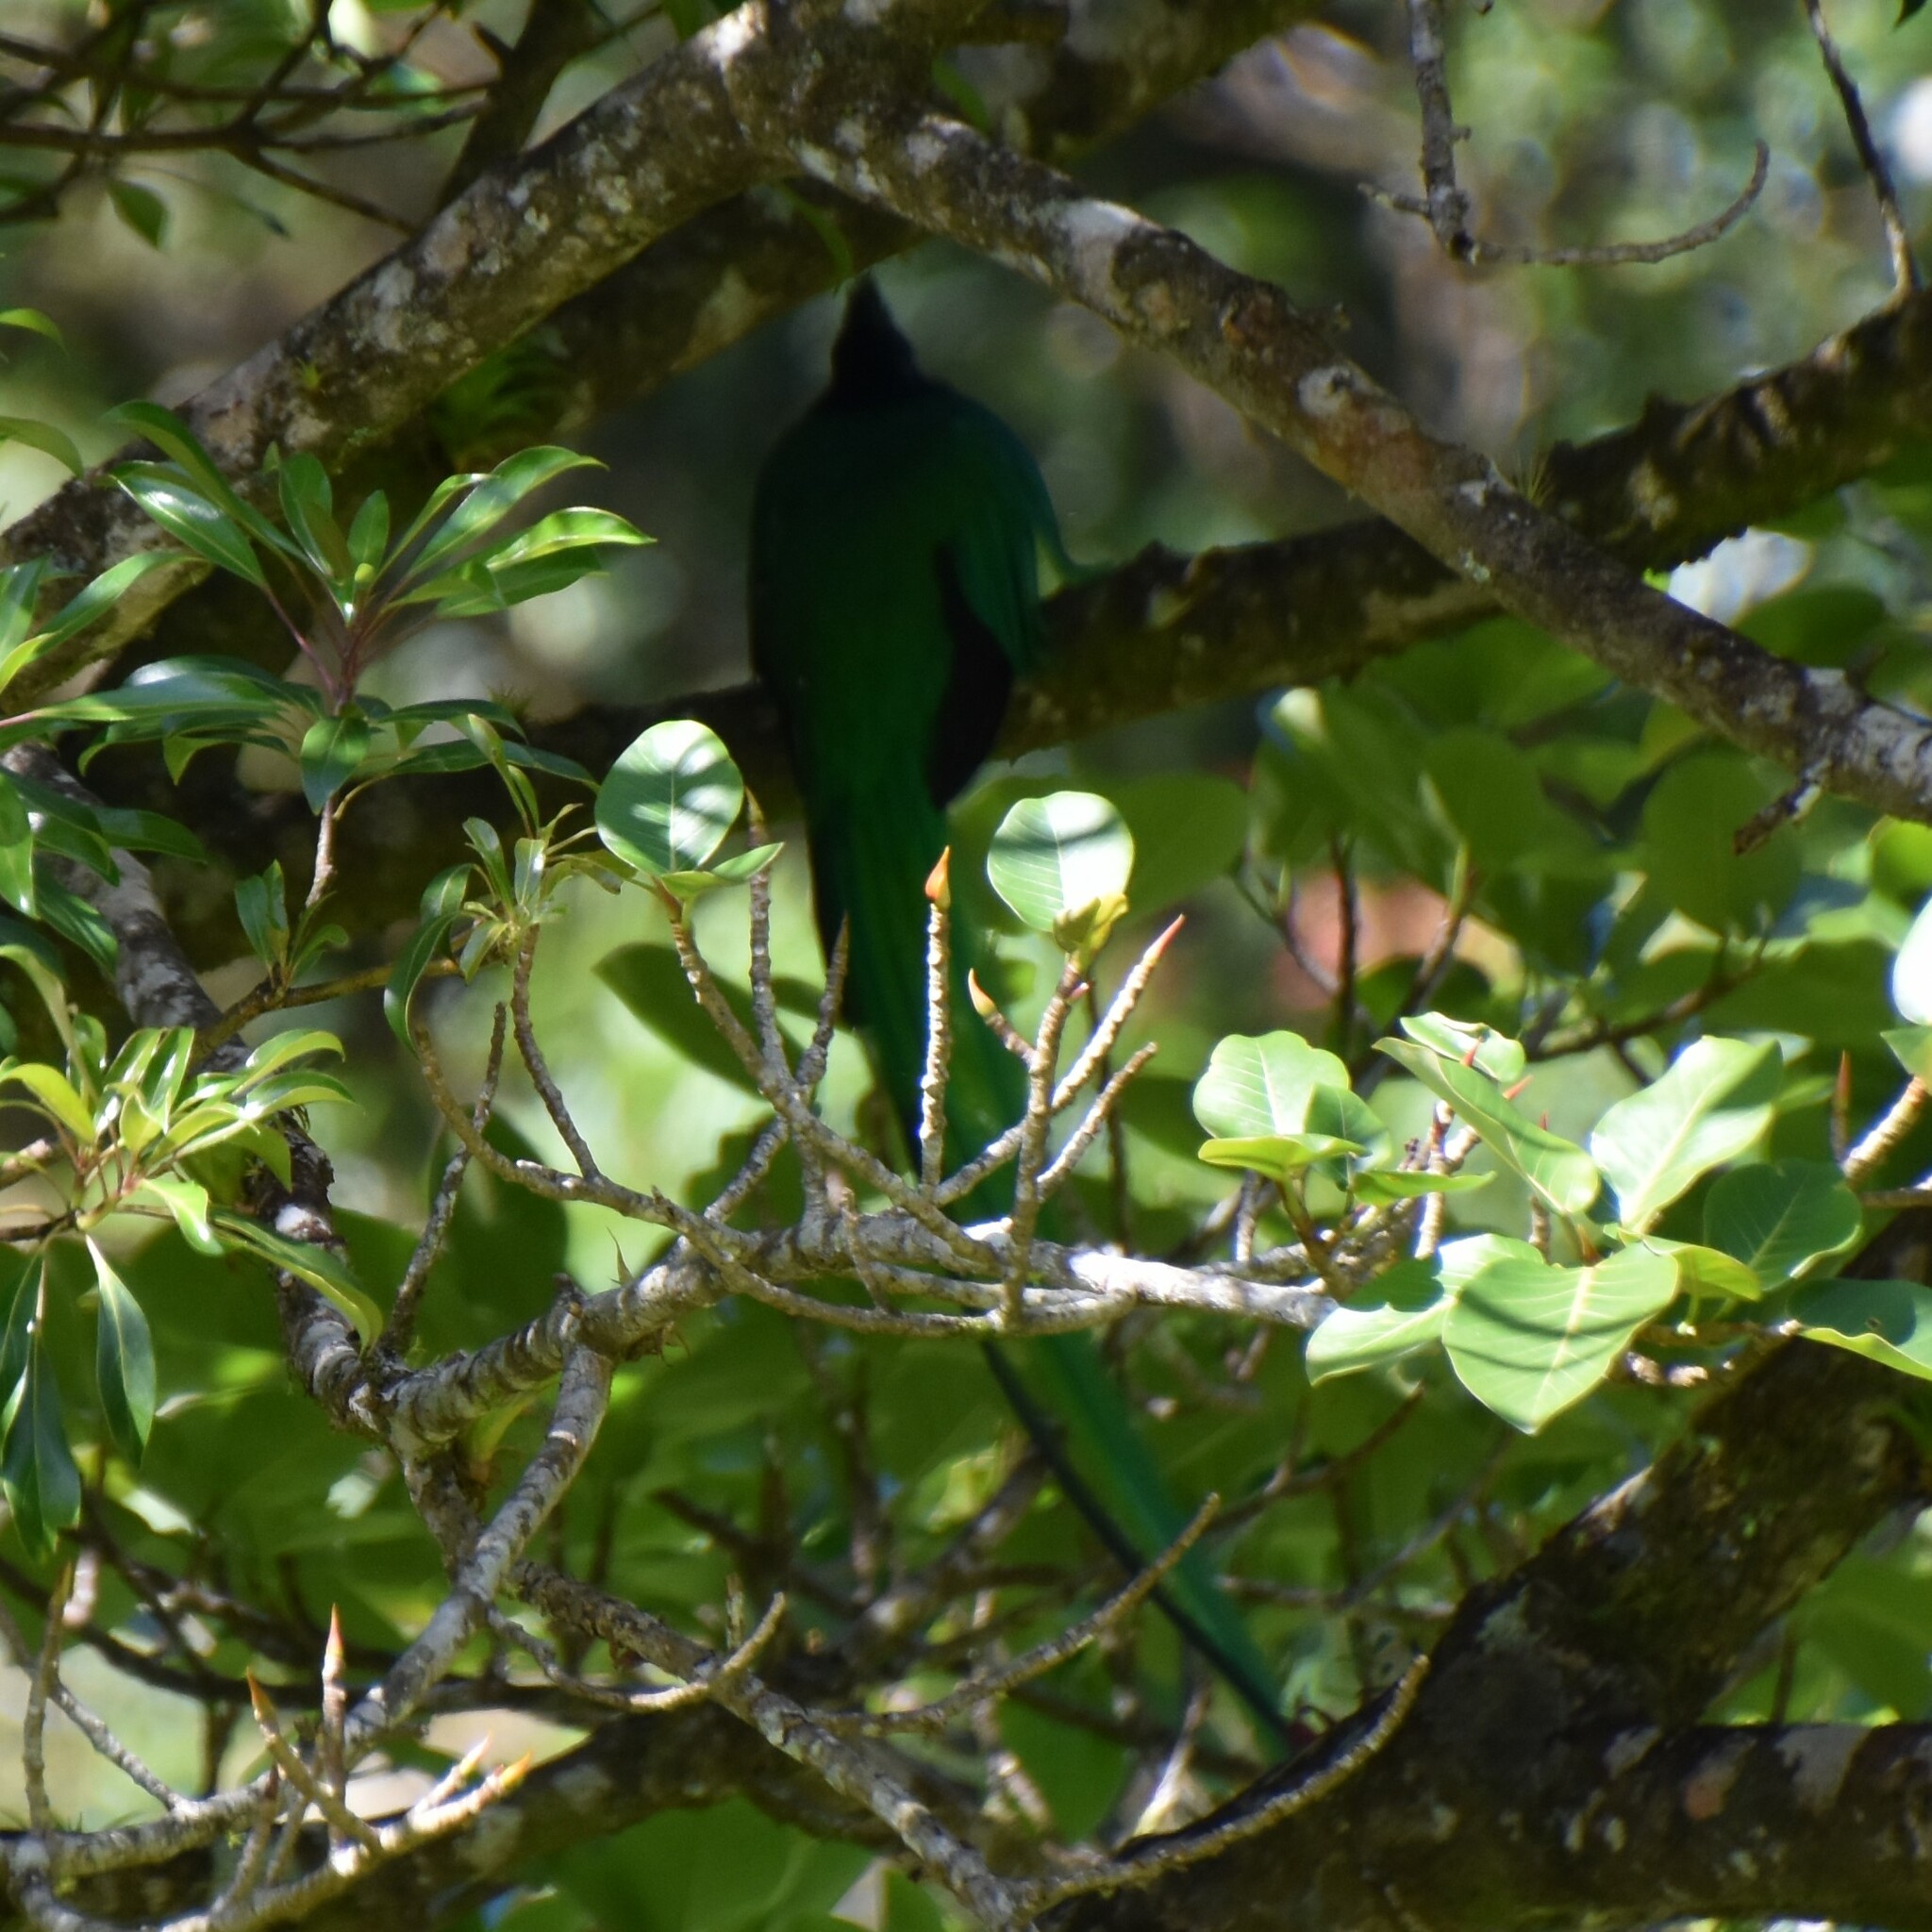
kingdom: Animalia
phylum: Chordata
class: Aves
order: Trogoniformes
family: Trogonidae
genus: Pharomachrus
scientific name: Pharomachrus mocinno
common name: Resplendent quetzal
